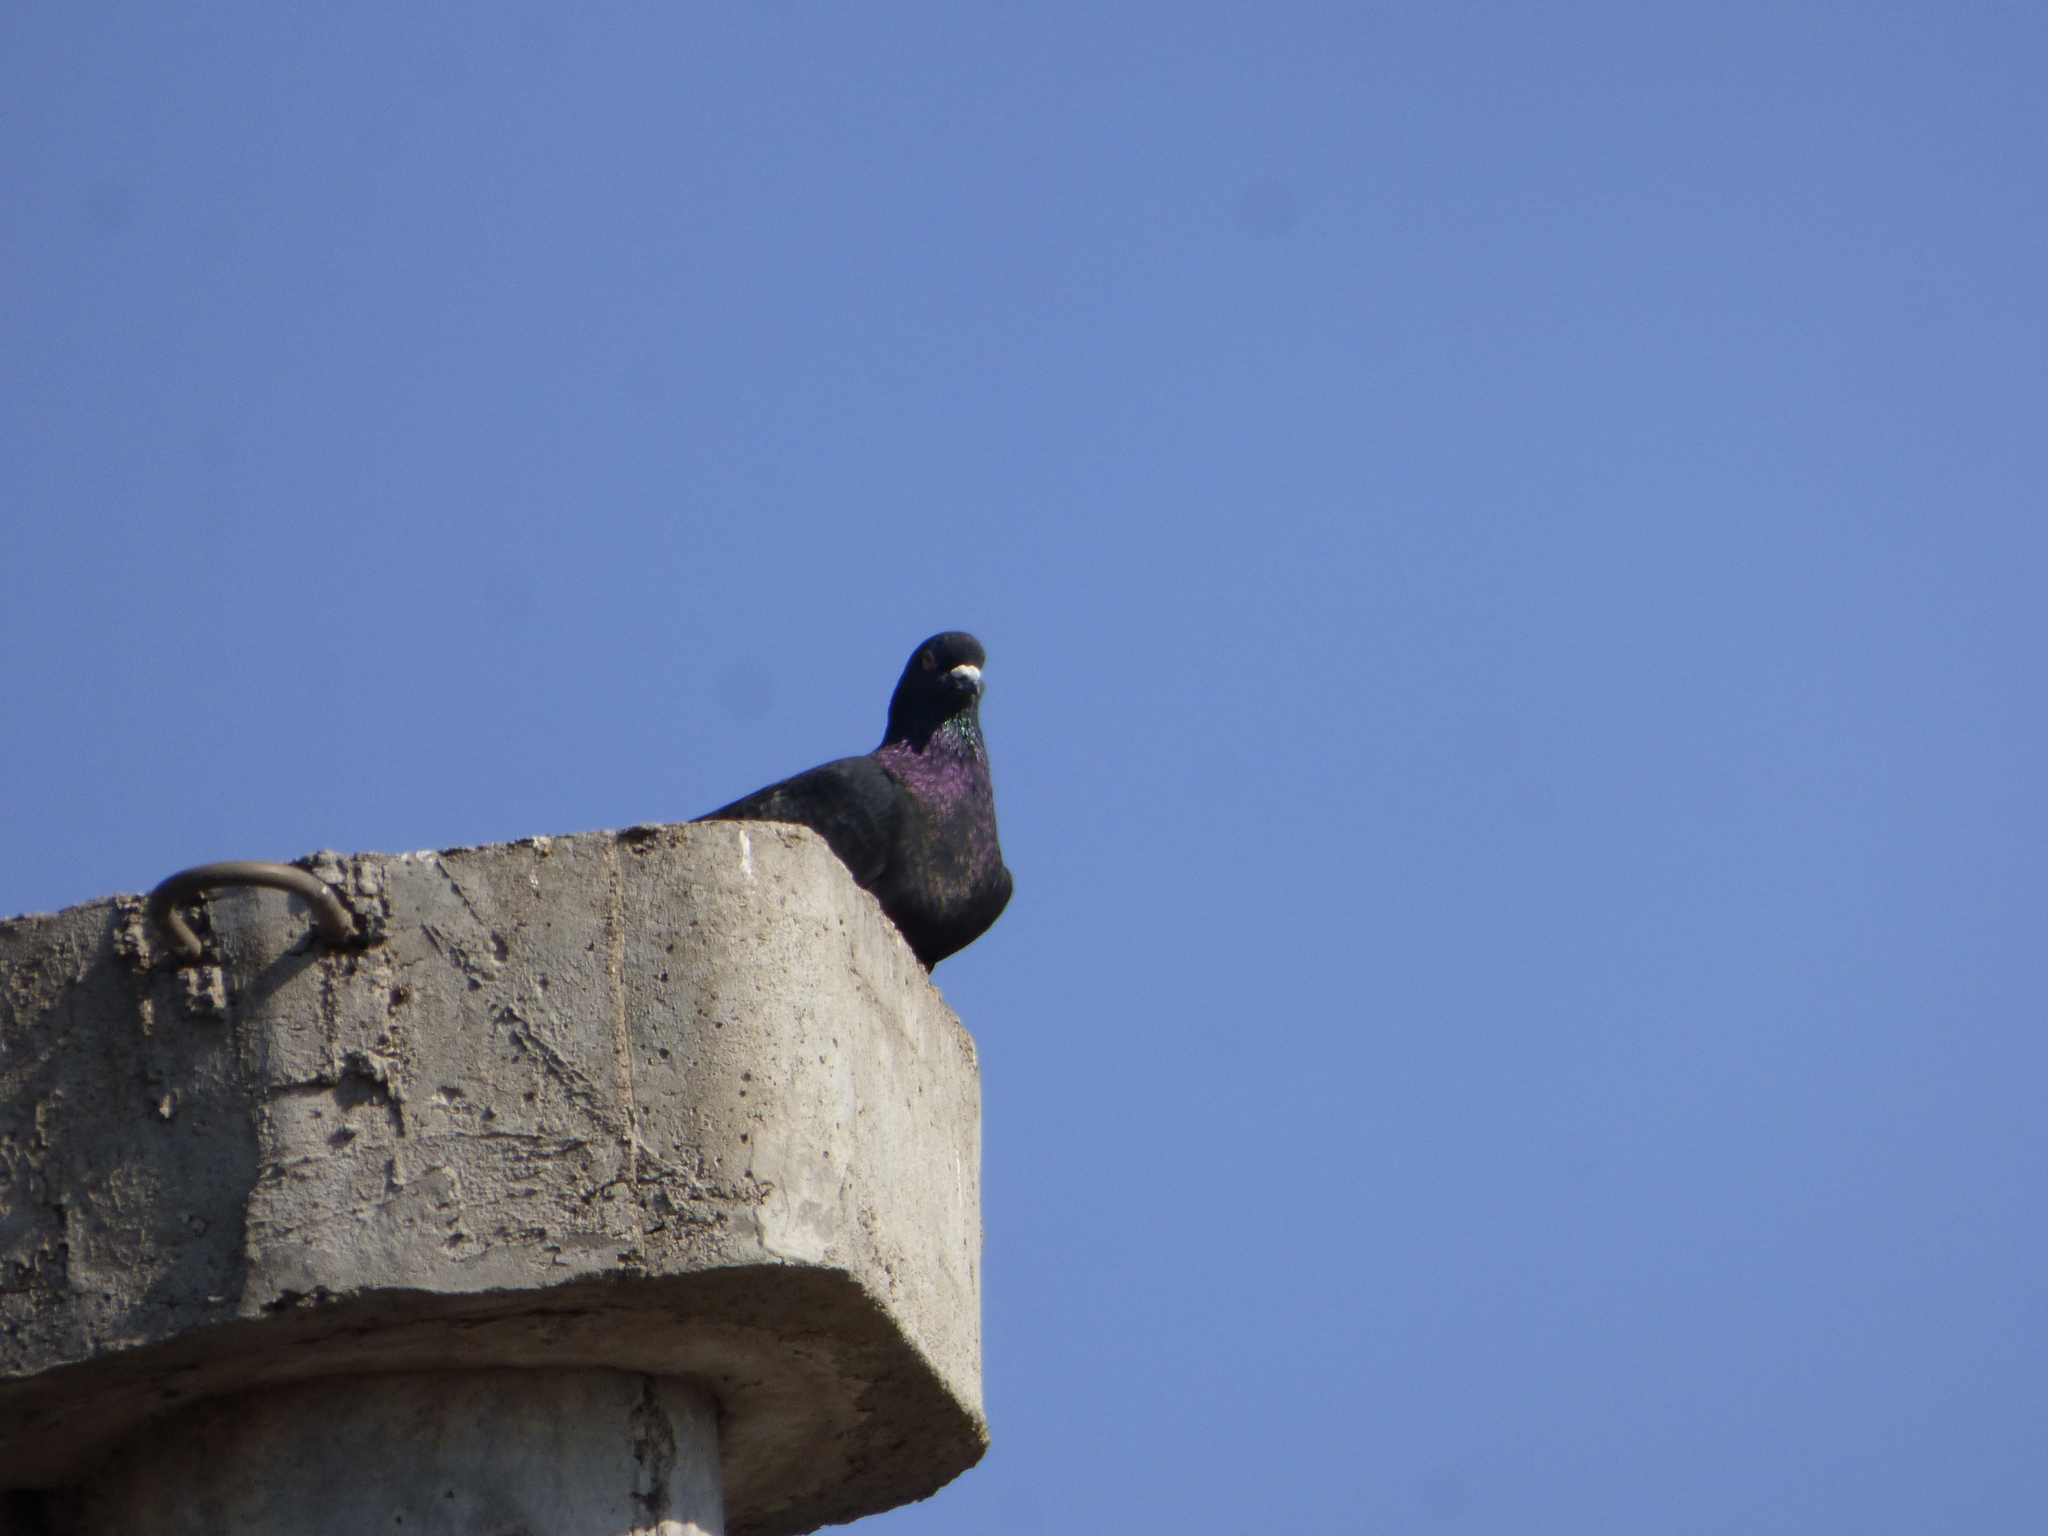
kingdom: Animalia
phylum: Chordata
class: Aves
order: Columbiformes
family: Columbidae
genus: Columba
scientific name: Columba livia
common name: Rock pigeon
